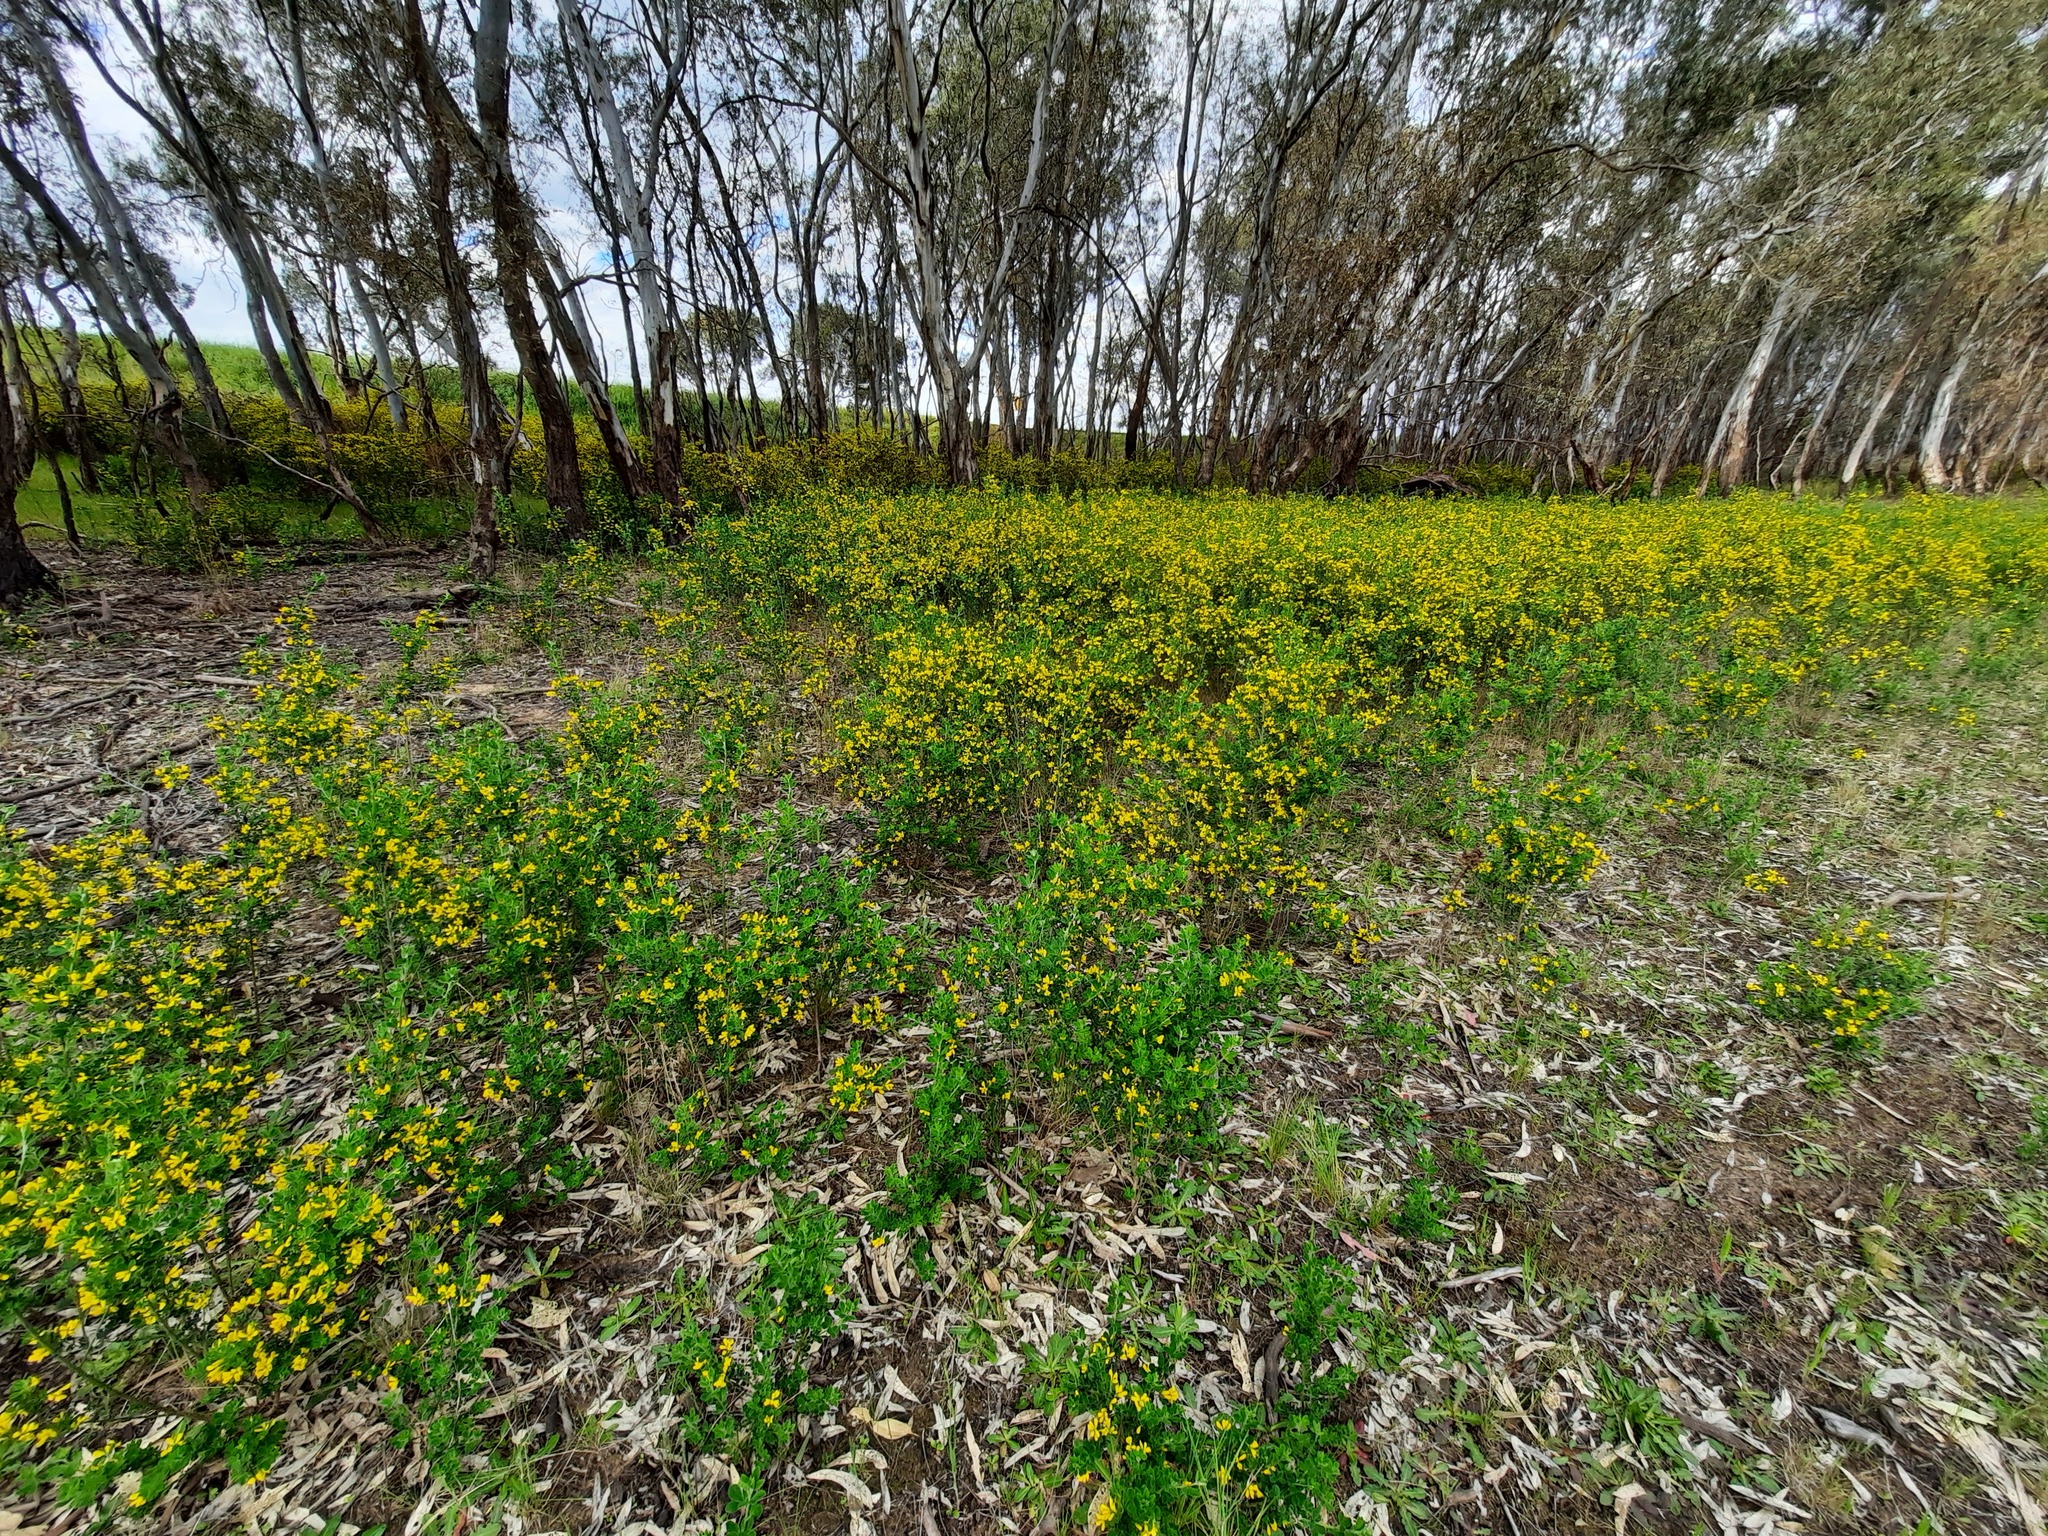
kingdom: Plantae
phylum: Tracheophyta
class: Magnoliopsida
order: Fabales
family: Fabaceae
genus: Genista
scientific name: Genista monspessulana
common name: Montpellier broom
